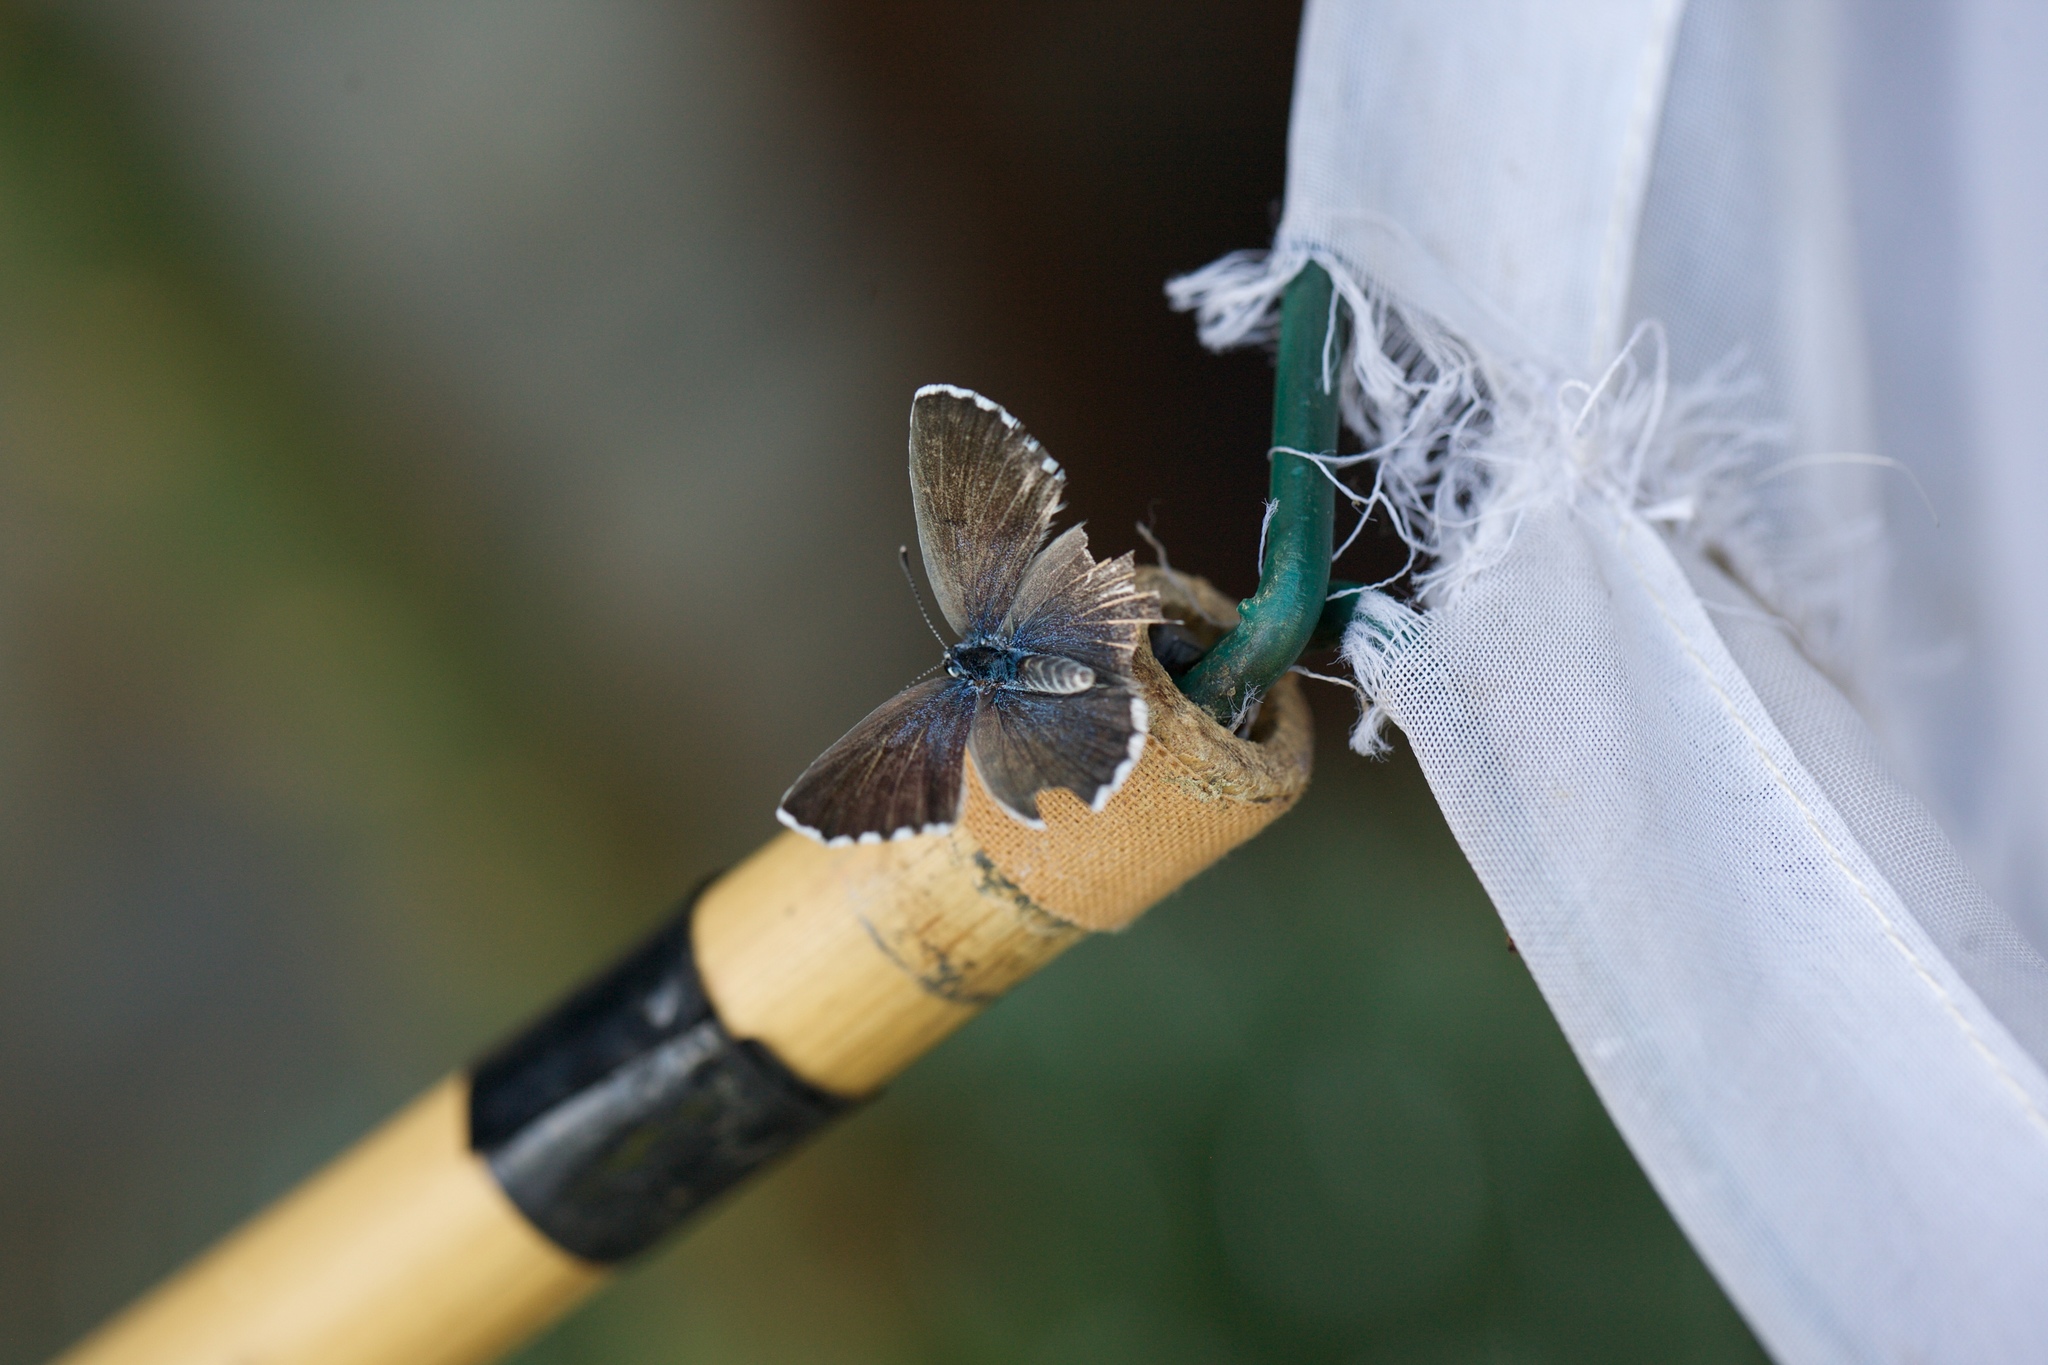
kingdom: Animalia
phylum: Arthropoda
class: Insecta
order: Lepidoptera
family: Lycaenidae
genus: Pseudophilotes
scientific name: Pseudophilotes baton
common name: Baton blue
